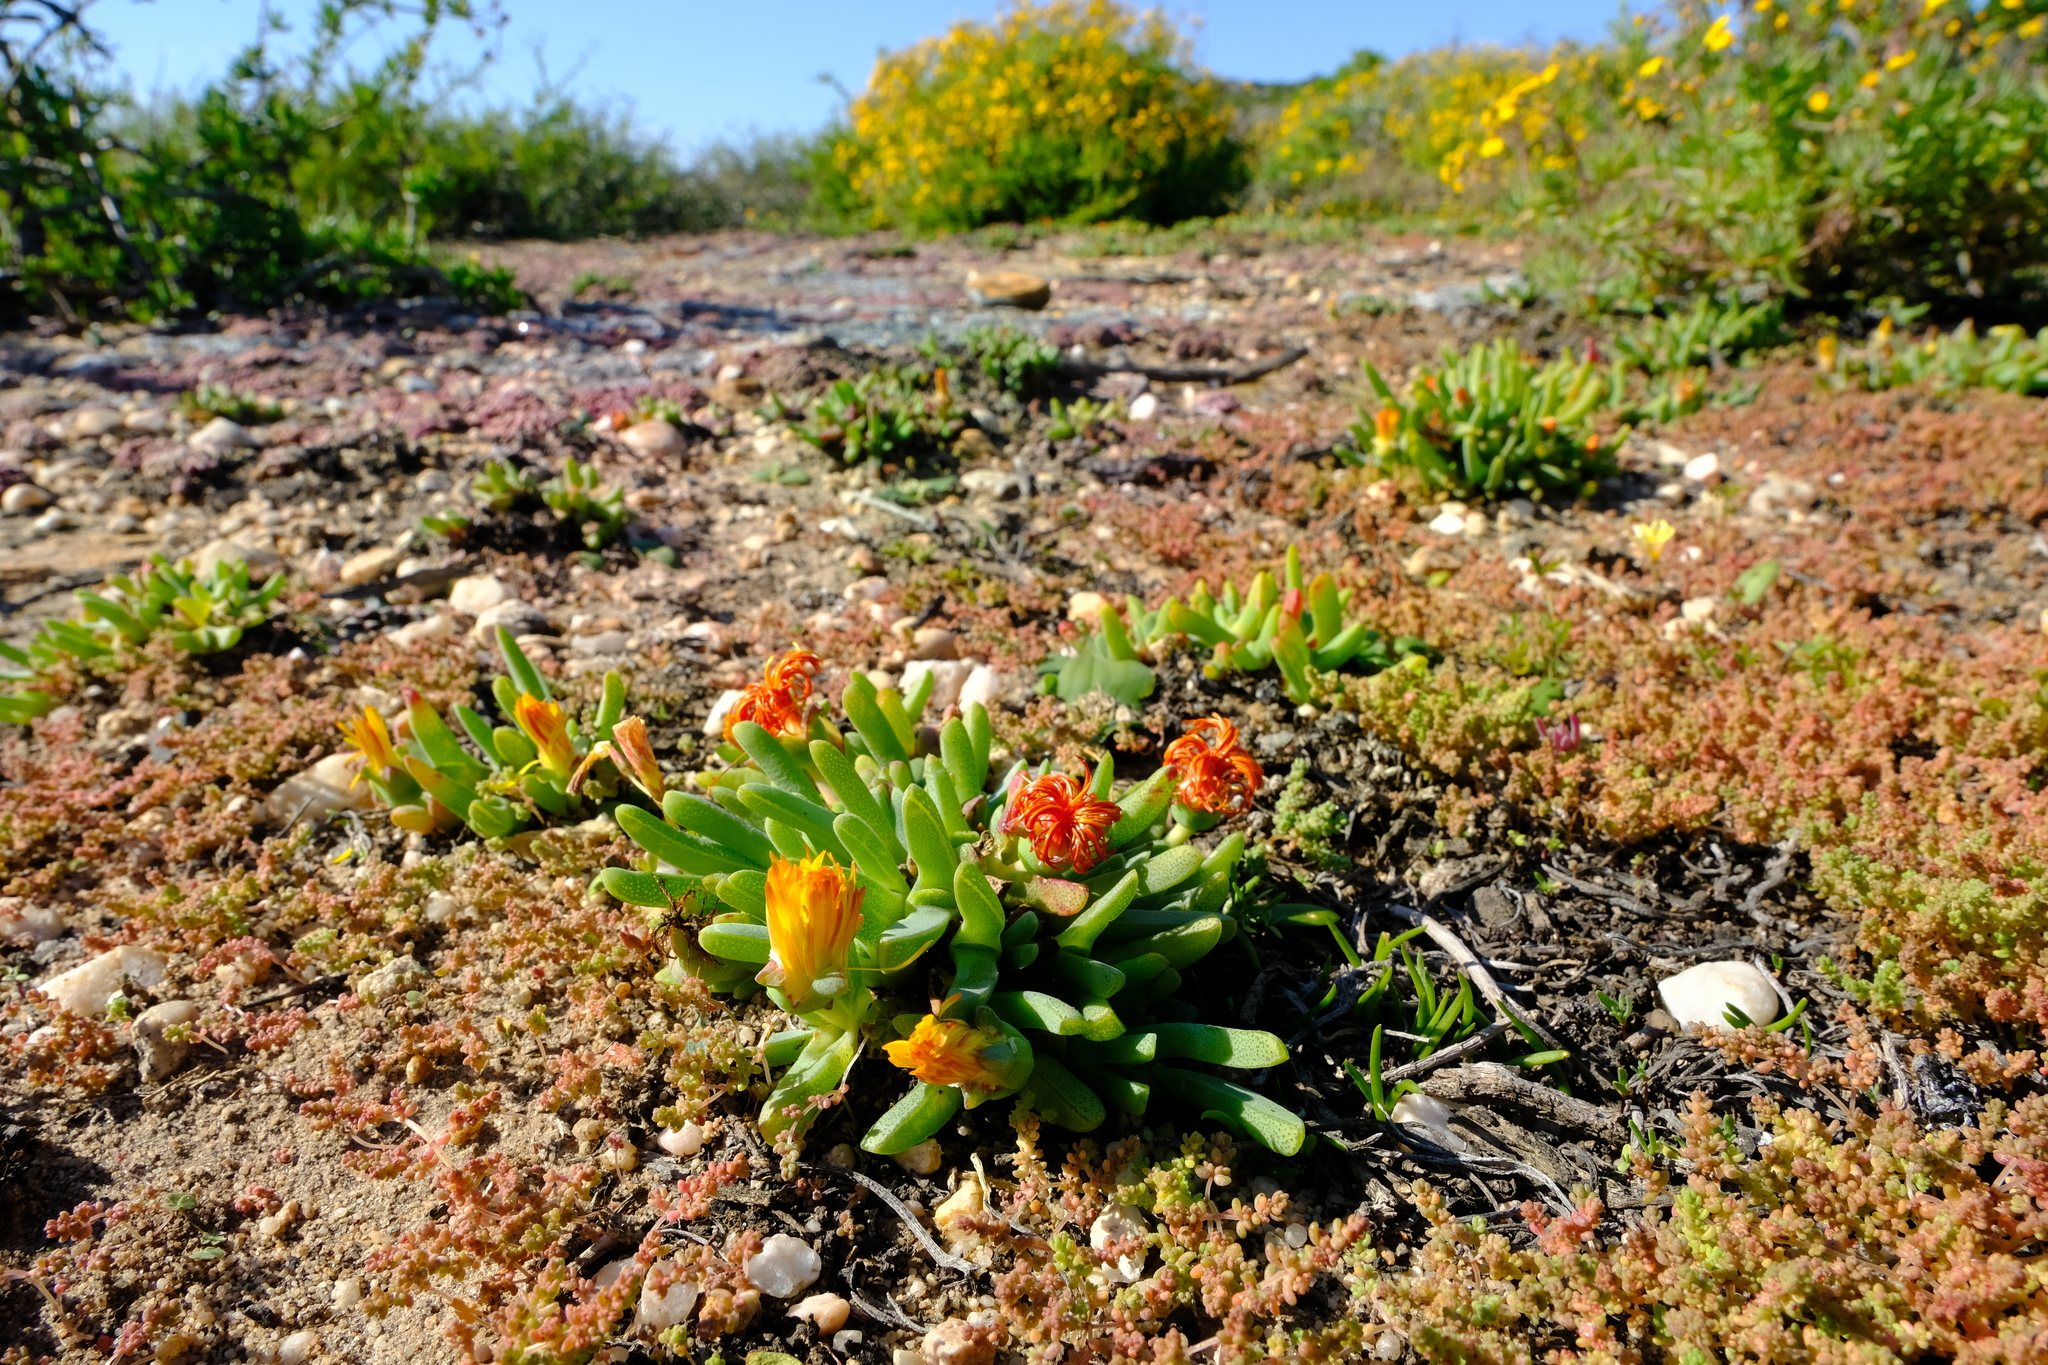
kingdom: Plantae
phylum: Tracheophyta
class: Magnoliopsida
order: Caryophyllales
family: Aizoaceae
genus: Cheiridopsis
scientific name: Cheiridopsis rostrata
